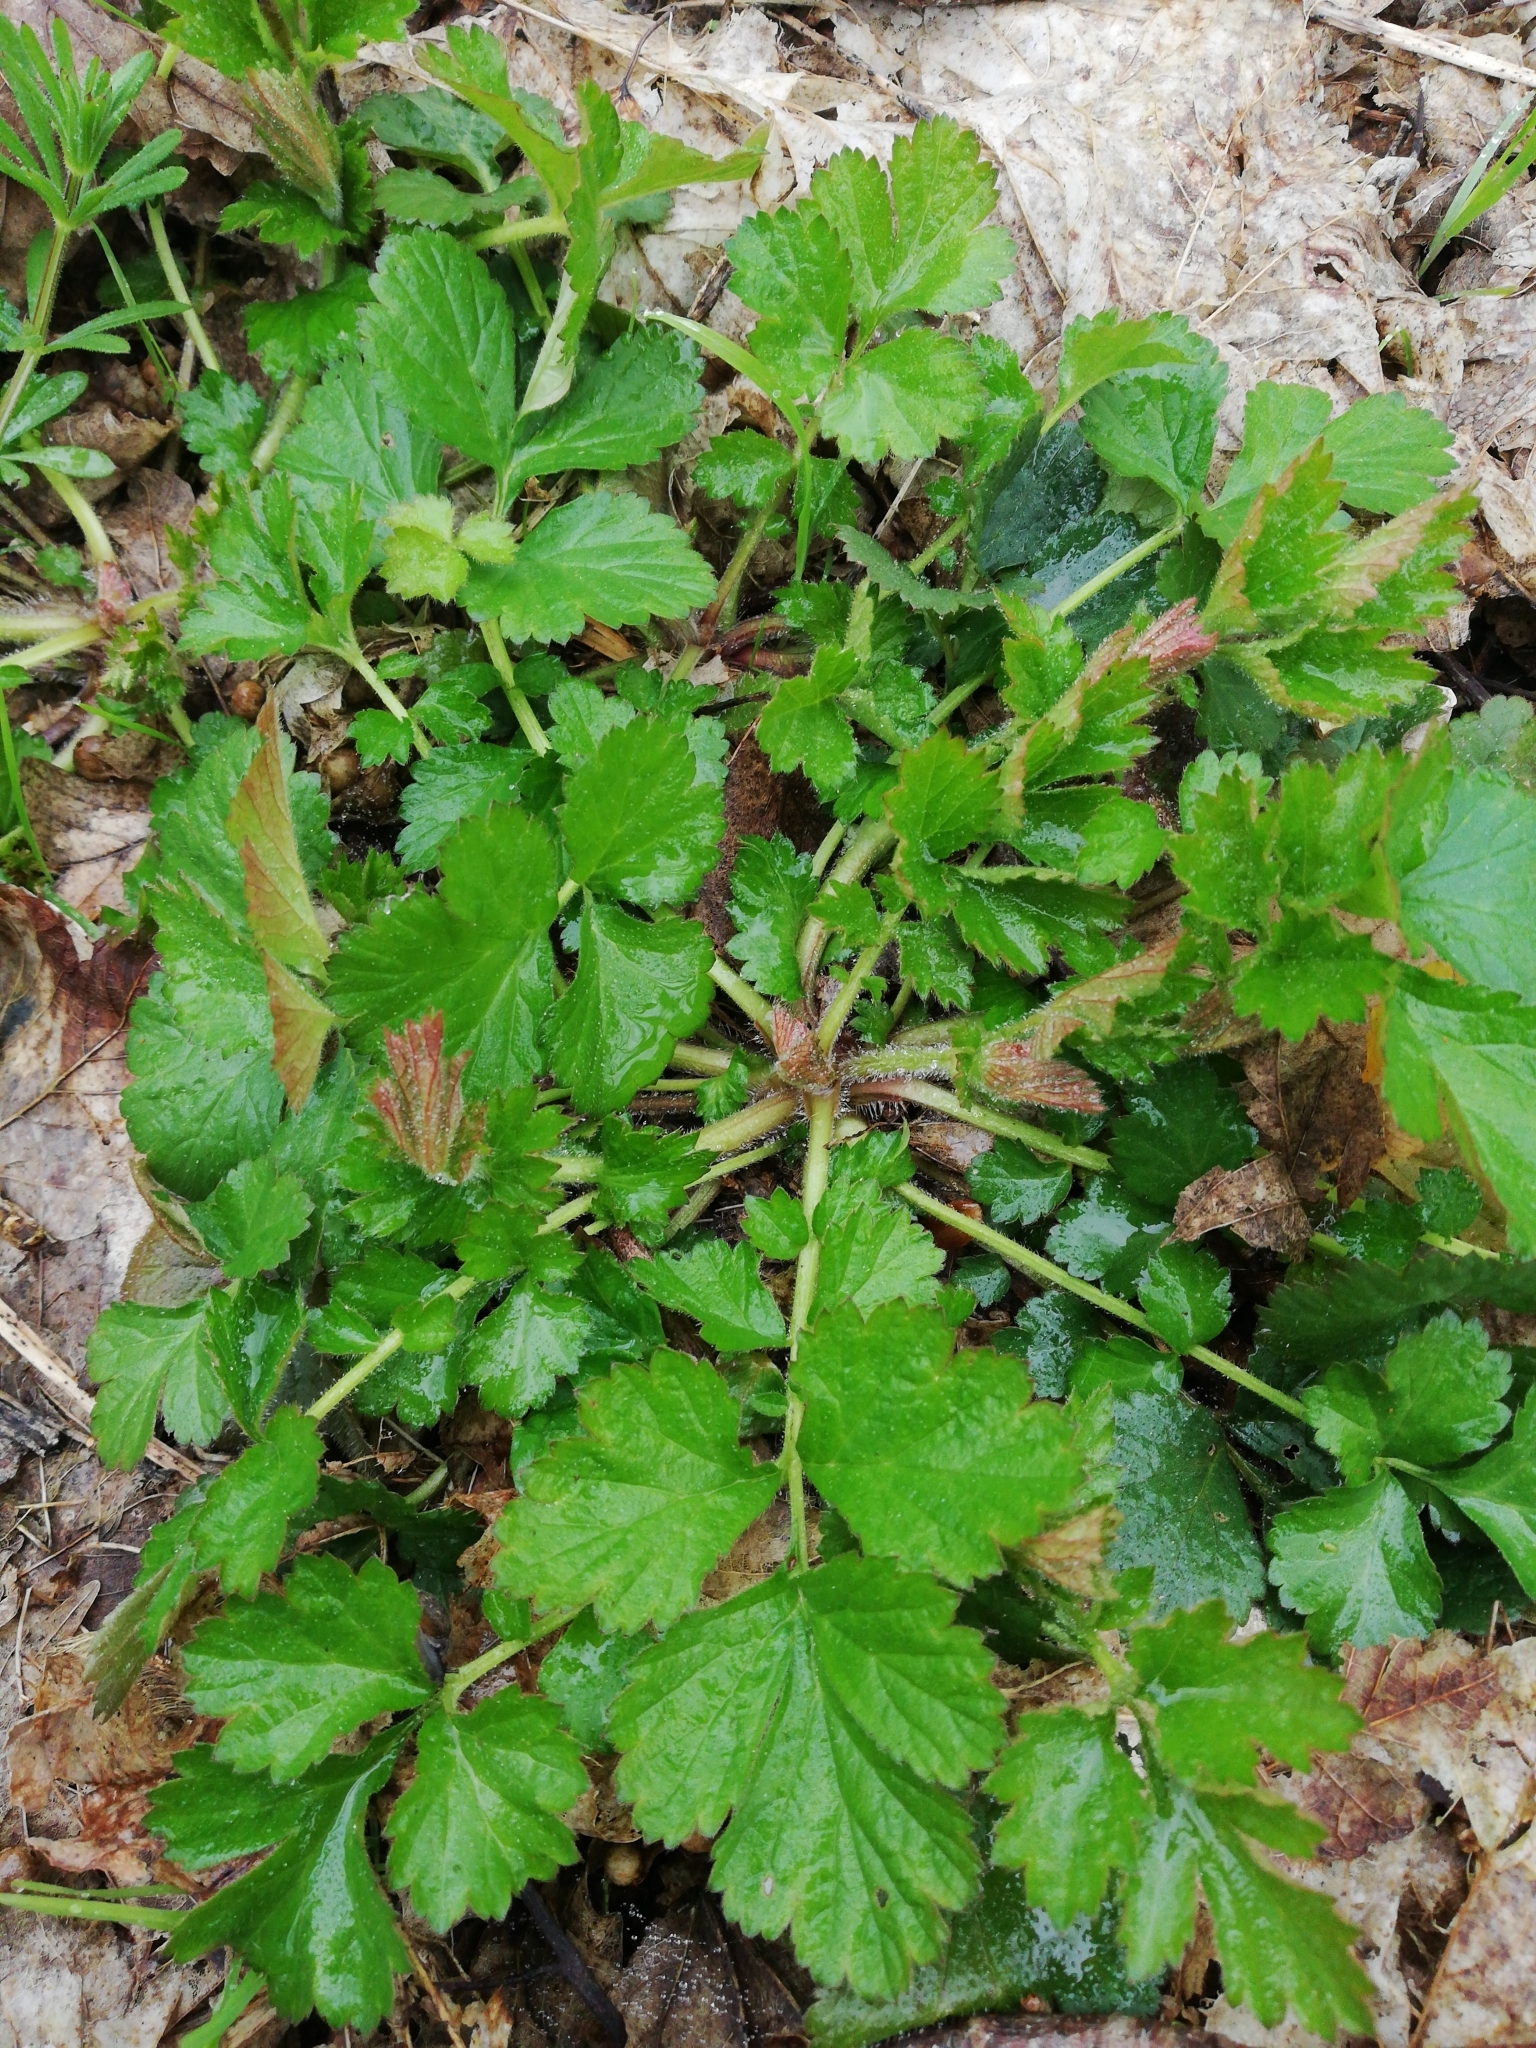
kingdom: Plantae
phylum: Tracheophyta
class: Magnoliopsida
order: Rosales
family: Rosaceae
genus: Geum
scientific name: Geum urbanum
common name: Wood avens
